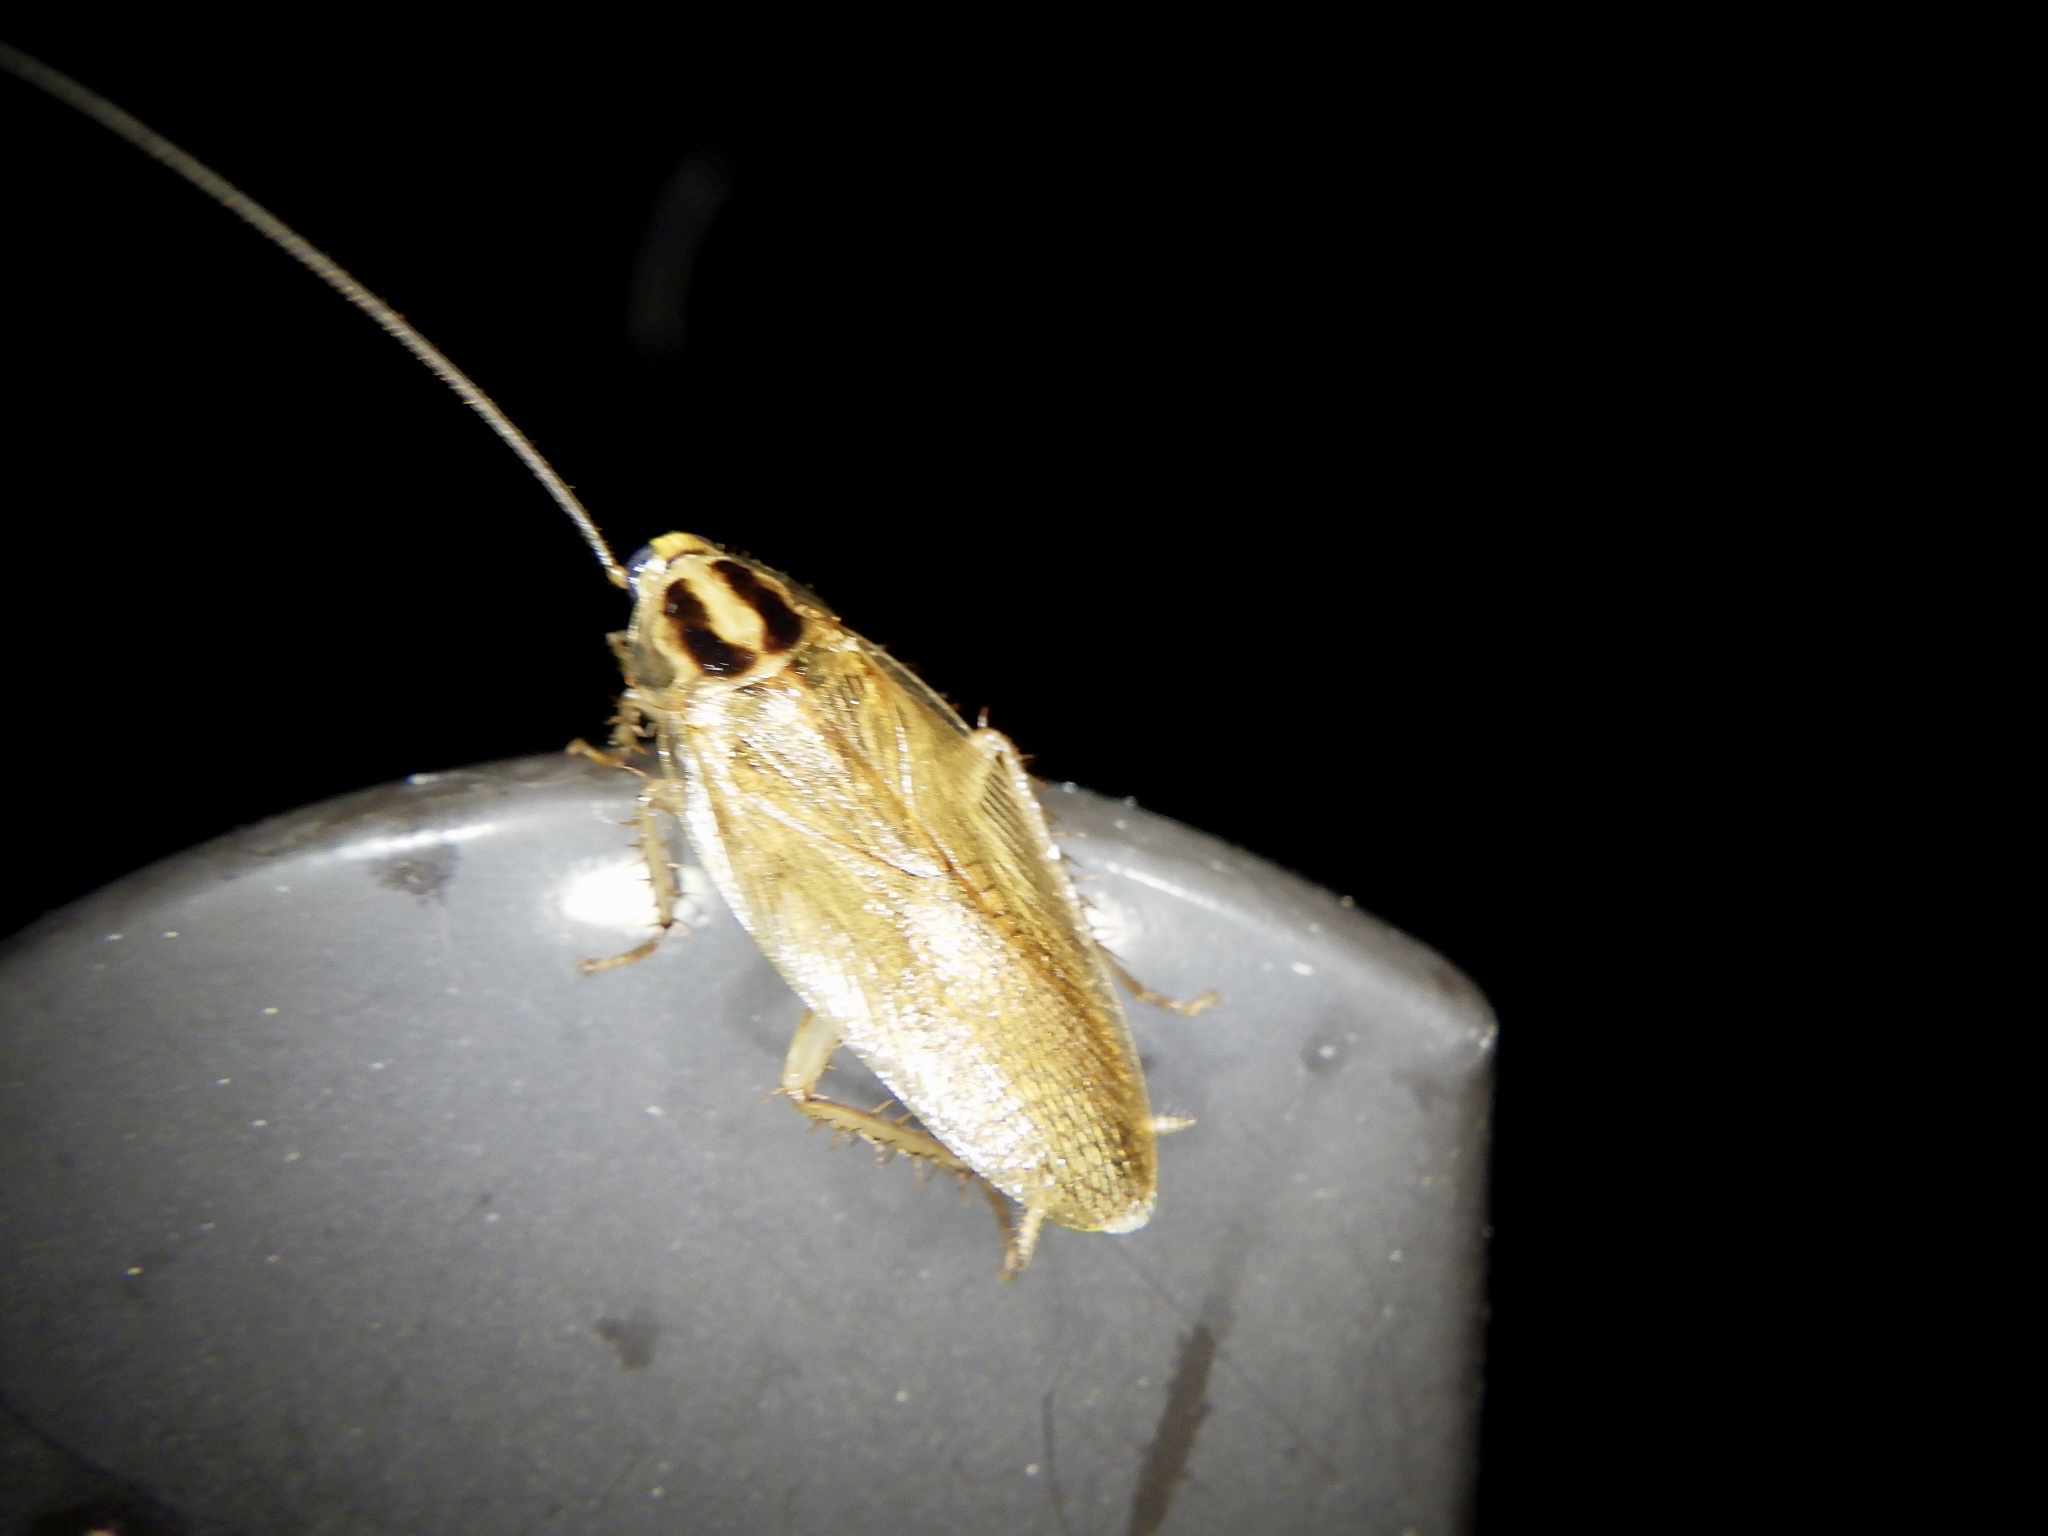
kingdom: Animalia
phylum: Arthropoda
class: Insecta
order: Blattodea
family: Ectobiidae
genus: Blattella
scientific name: Blattella nipponica
